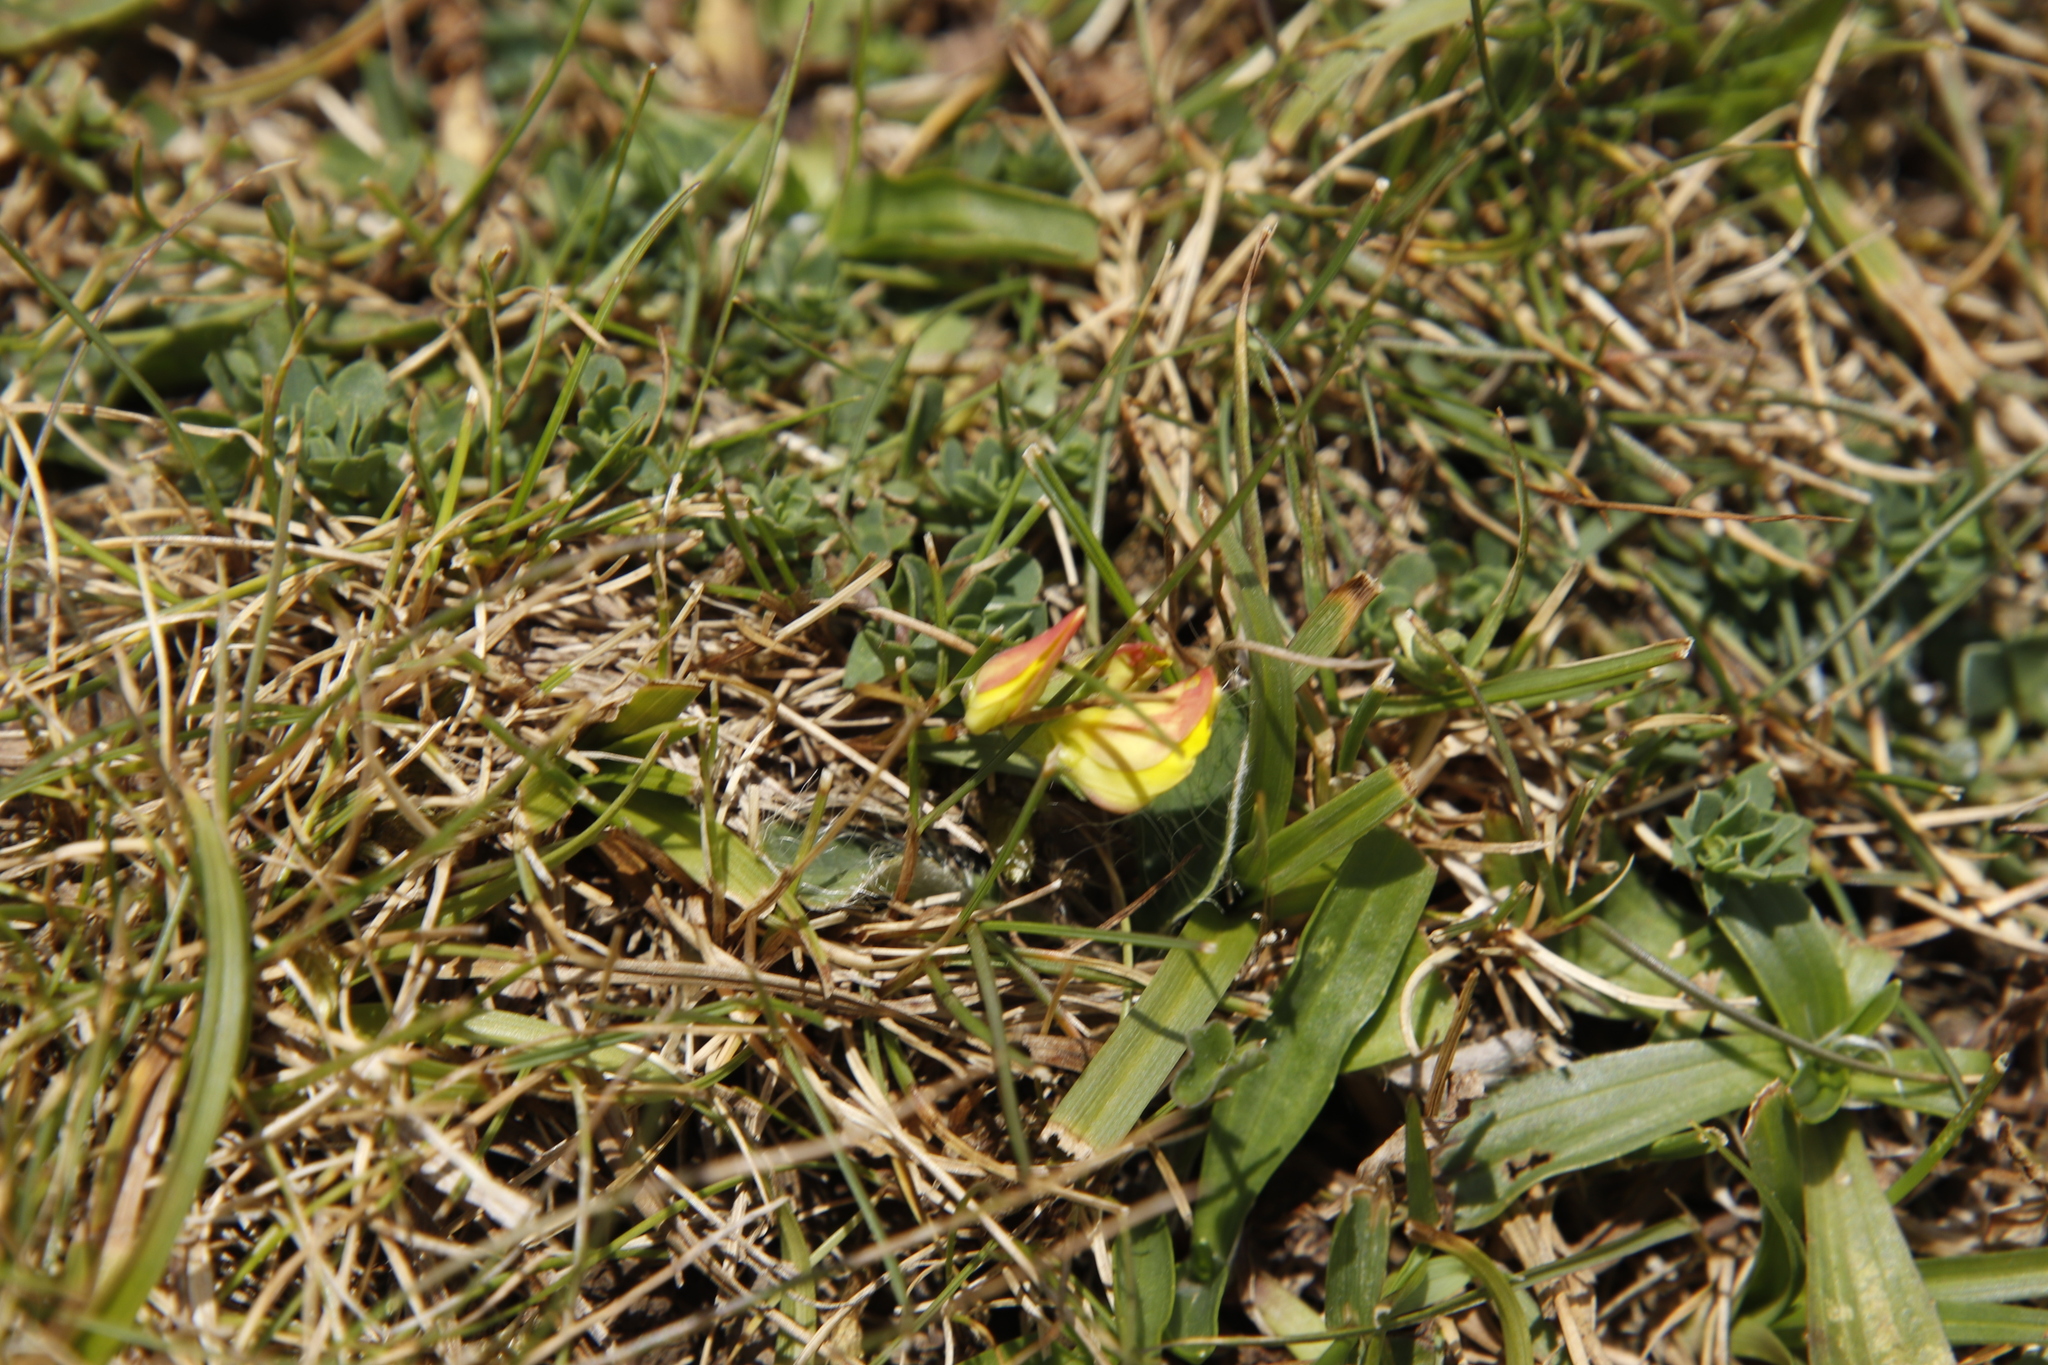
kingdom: Plantae
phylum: Tracheophyta
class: Magnoliopsida
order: Fabales
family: Fabaceae
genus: Lotus
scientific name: Lotus corniculatus
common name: Common bird's-foot-trefoil
